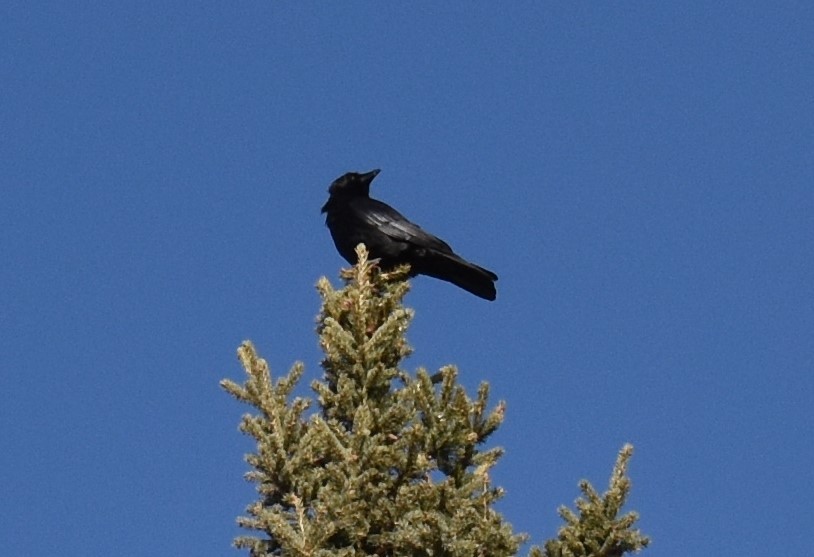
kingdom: Animalia
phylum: Chordata
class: Aves
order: Passeriformes
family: Corvidae
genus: Corvus
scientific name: Corvus brachyrhynchos
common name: American crow
